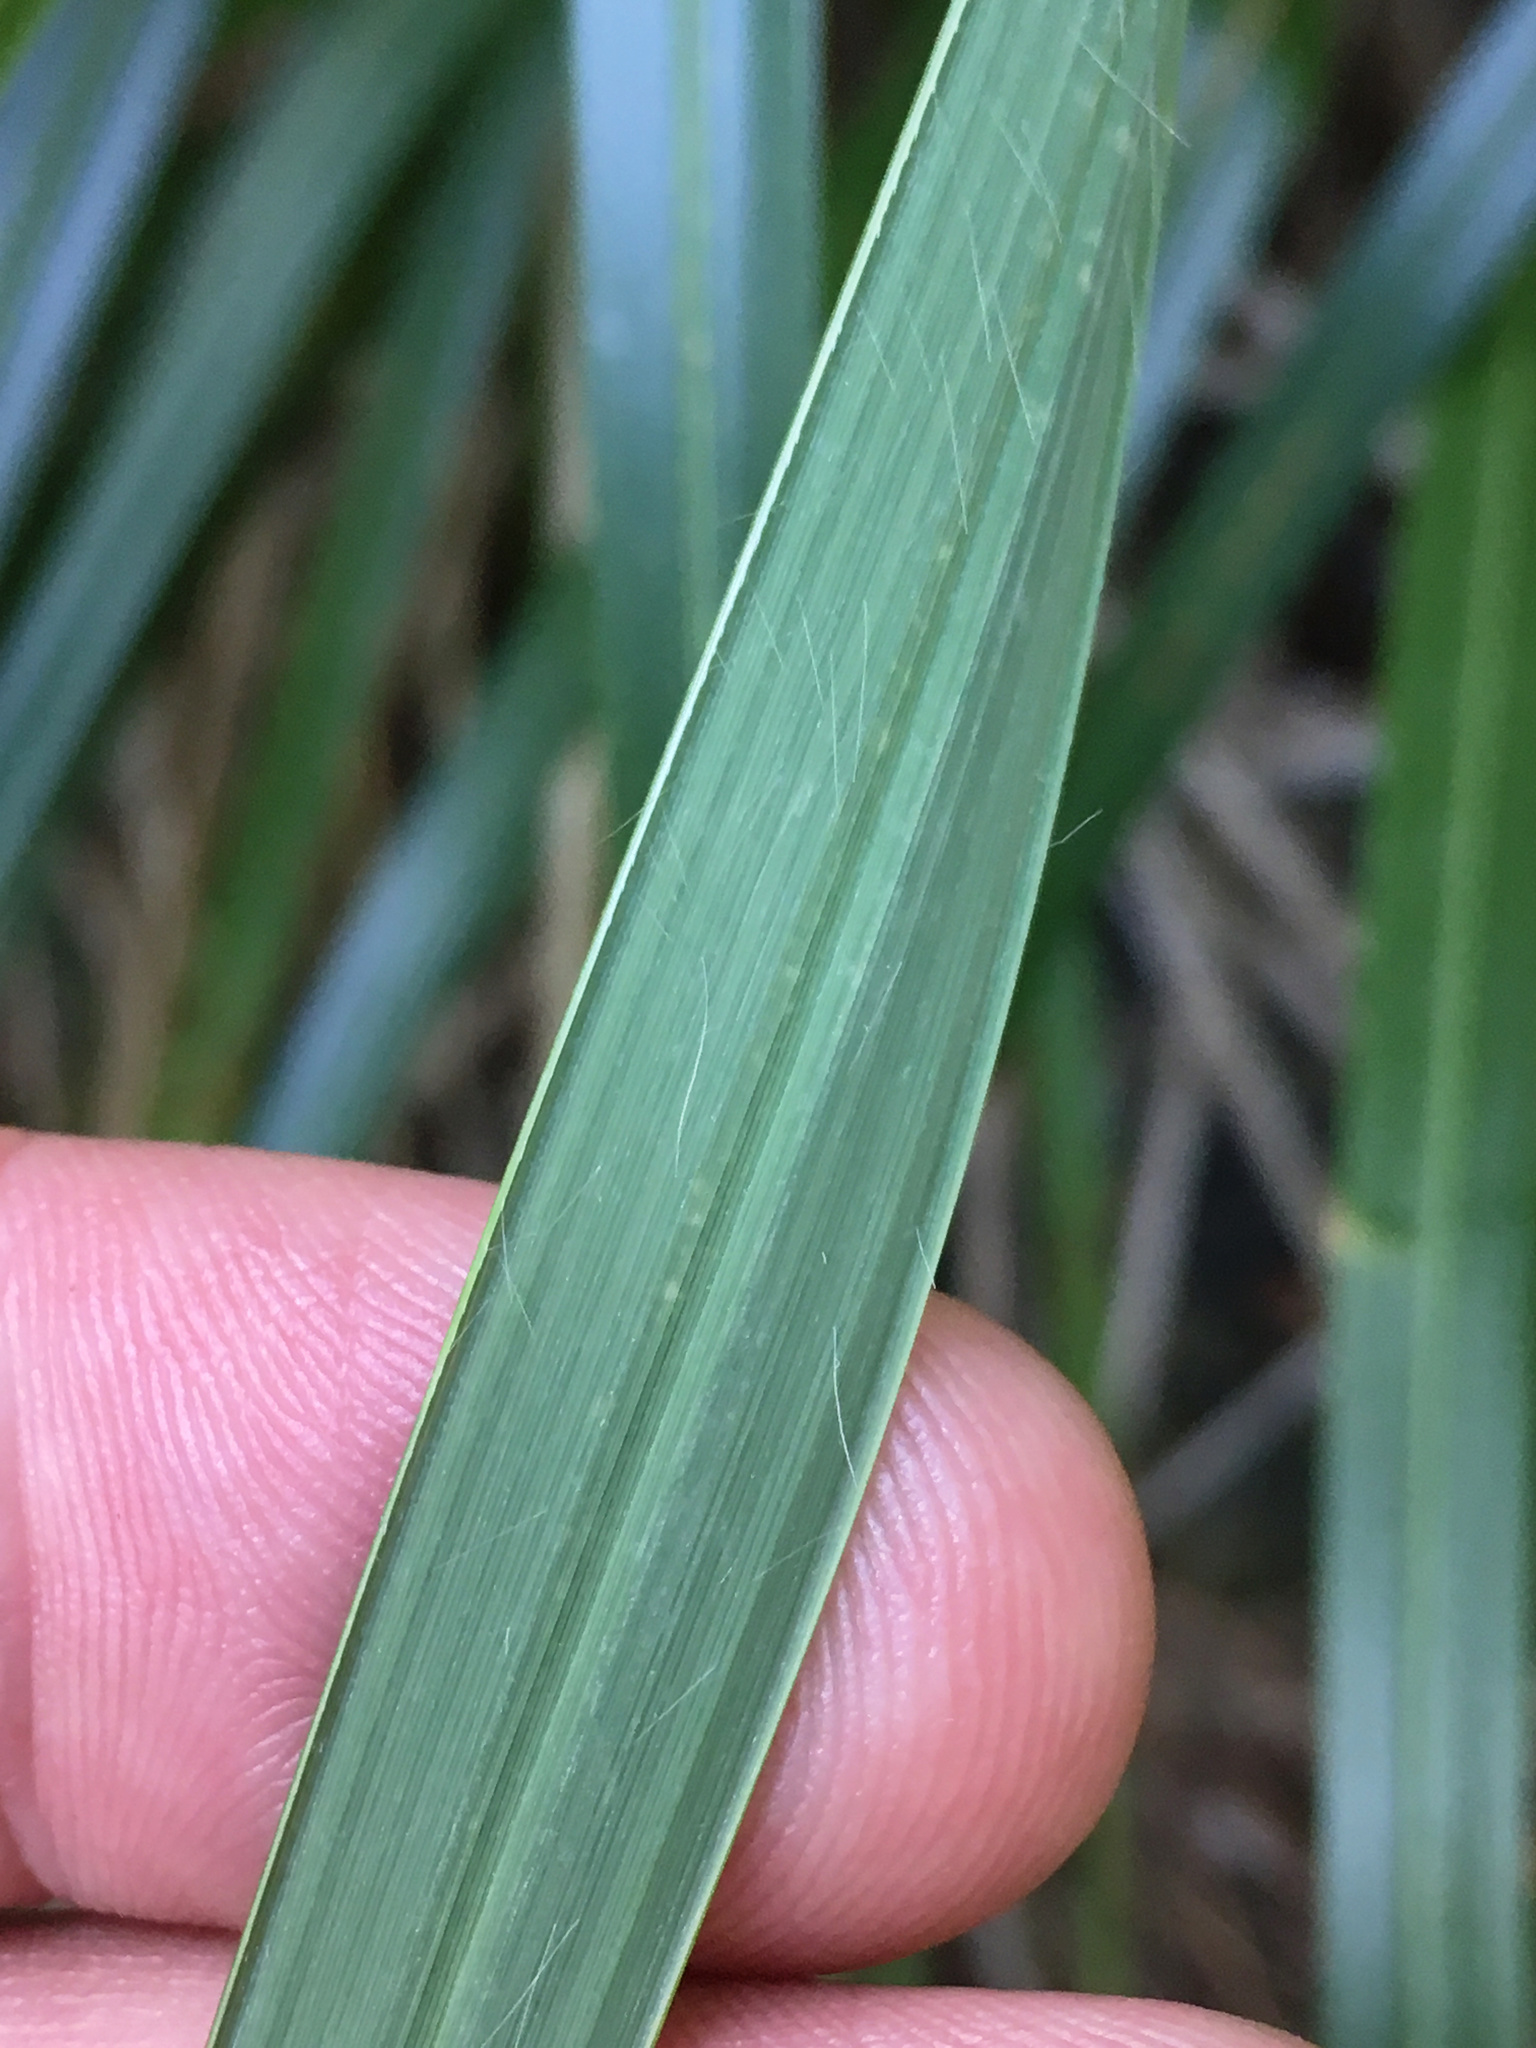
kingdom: Plantae
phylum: Tracheophyta
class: Liliopsida
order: Poales
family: Poaceae
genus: Cortaderia
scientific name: Cortaderia selloana
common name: Uruguayan pampas grass
